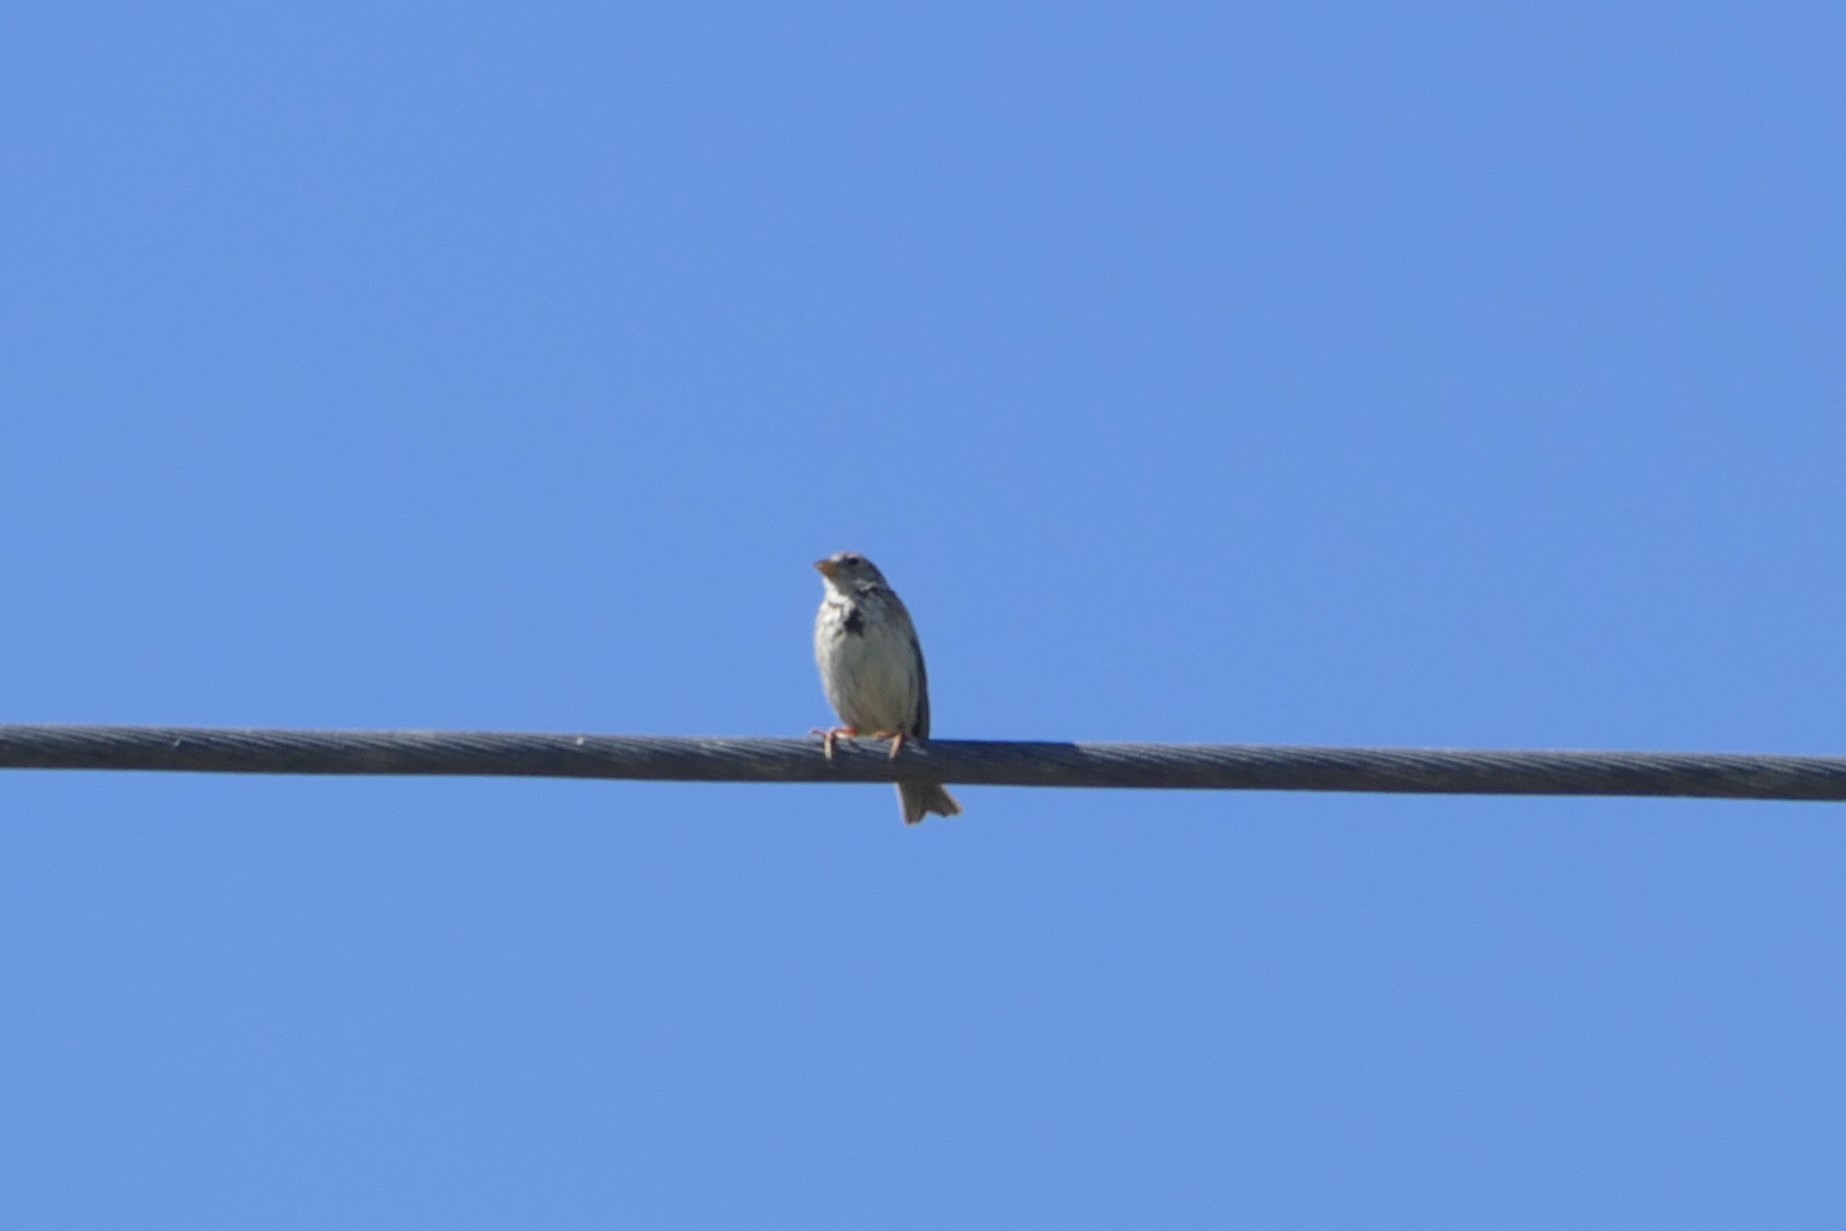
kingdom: Animalia
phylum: Chordata
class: Aves
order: Passeriformes
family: Emberizidae
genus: Emberiza
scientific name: Emberiza calandra
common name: Corn bunting
